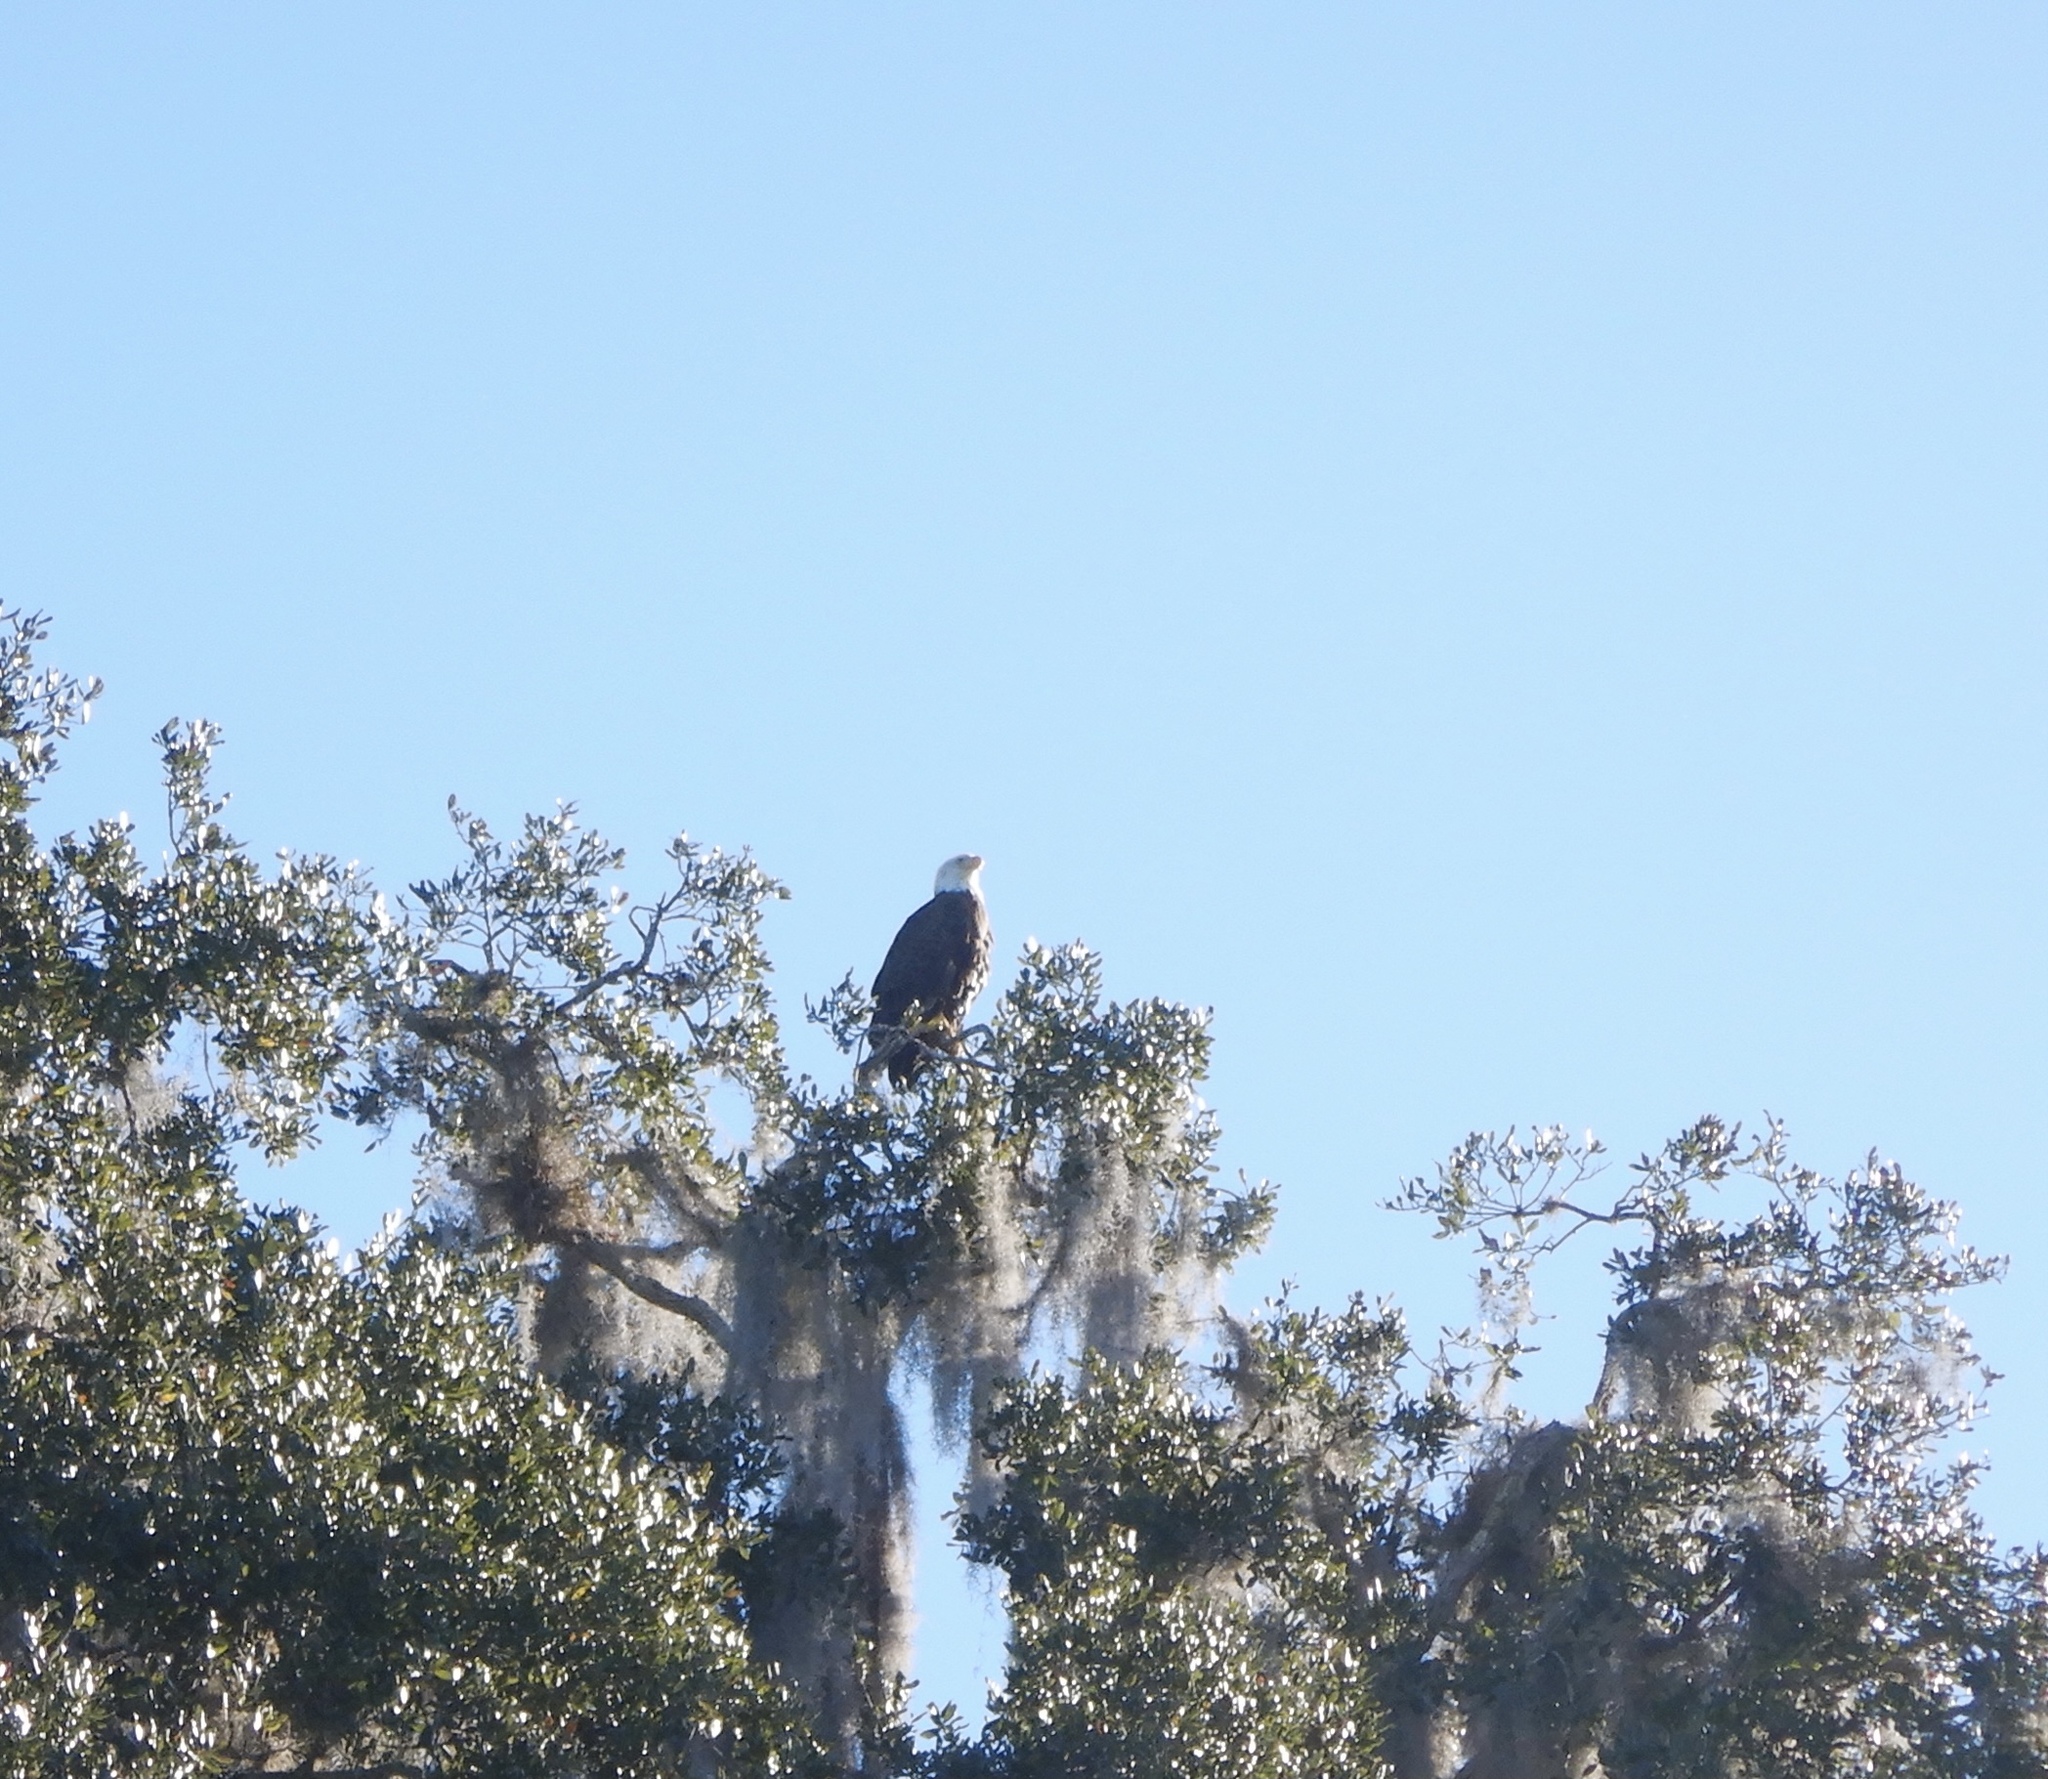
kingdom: Animalia
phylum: Chordata
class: Aves
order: Accipitriformes
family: Accipitridae
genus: Haliaeetus
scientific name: Haliaeetus leucocephalus
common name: Bald eagle
